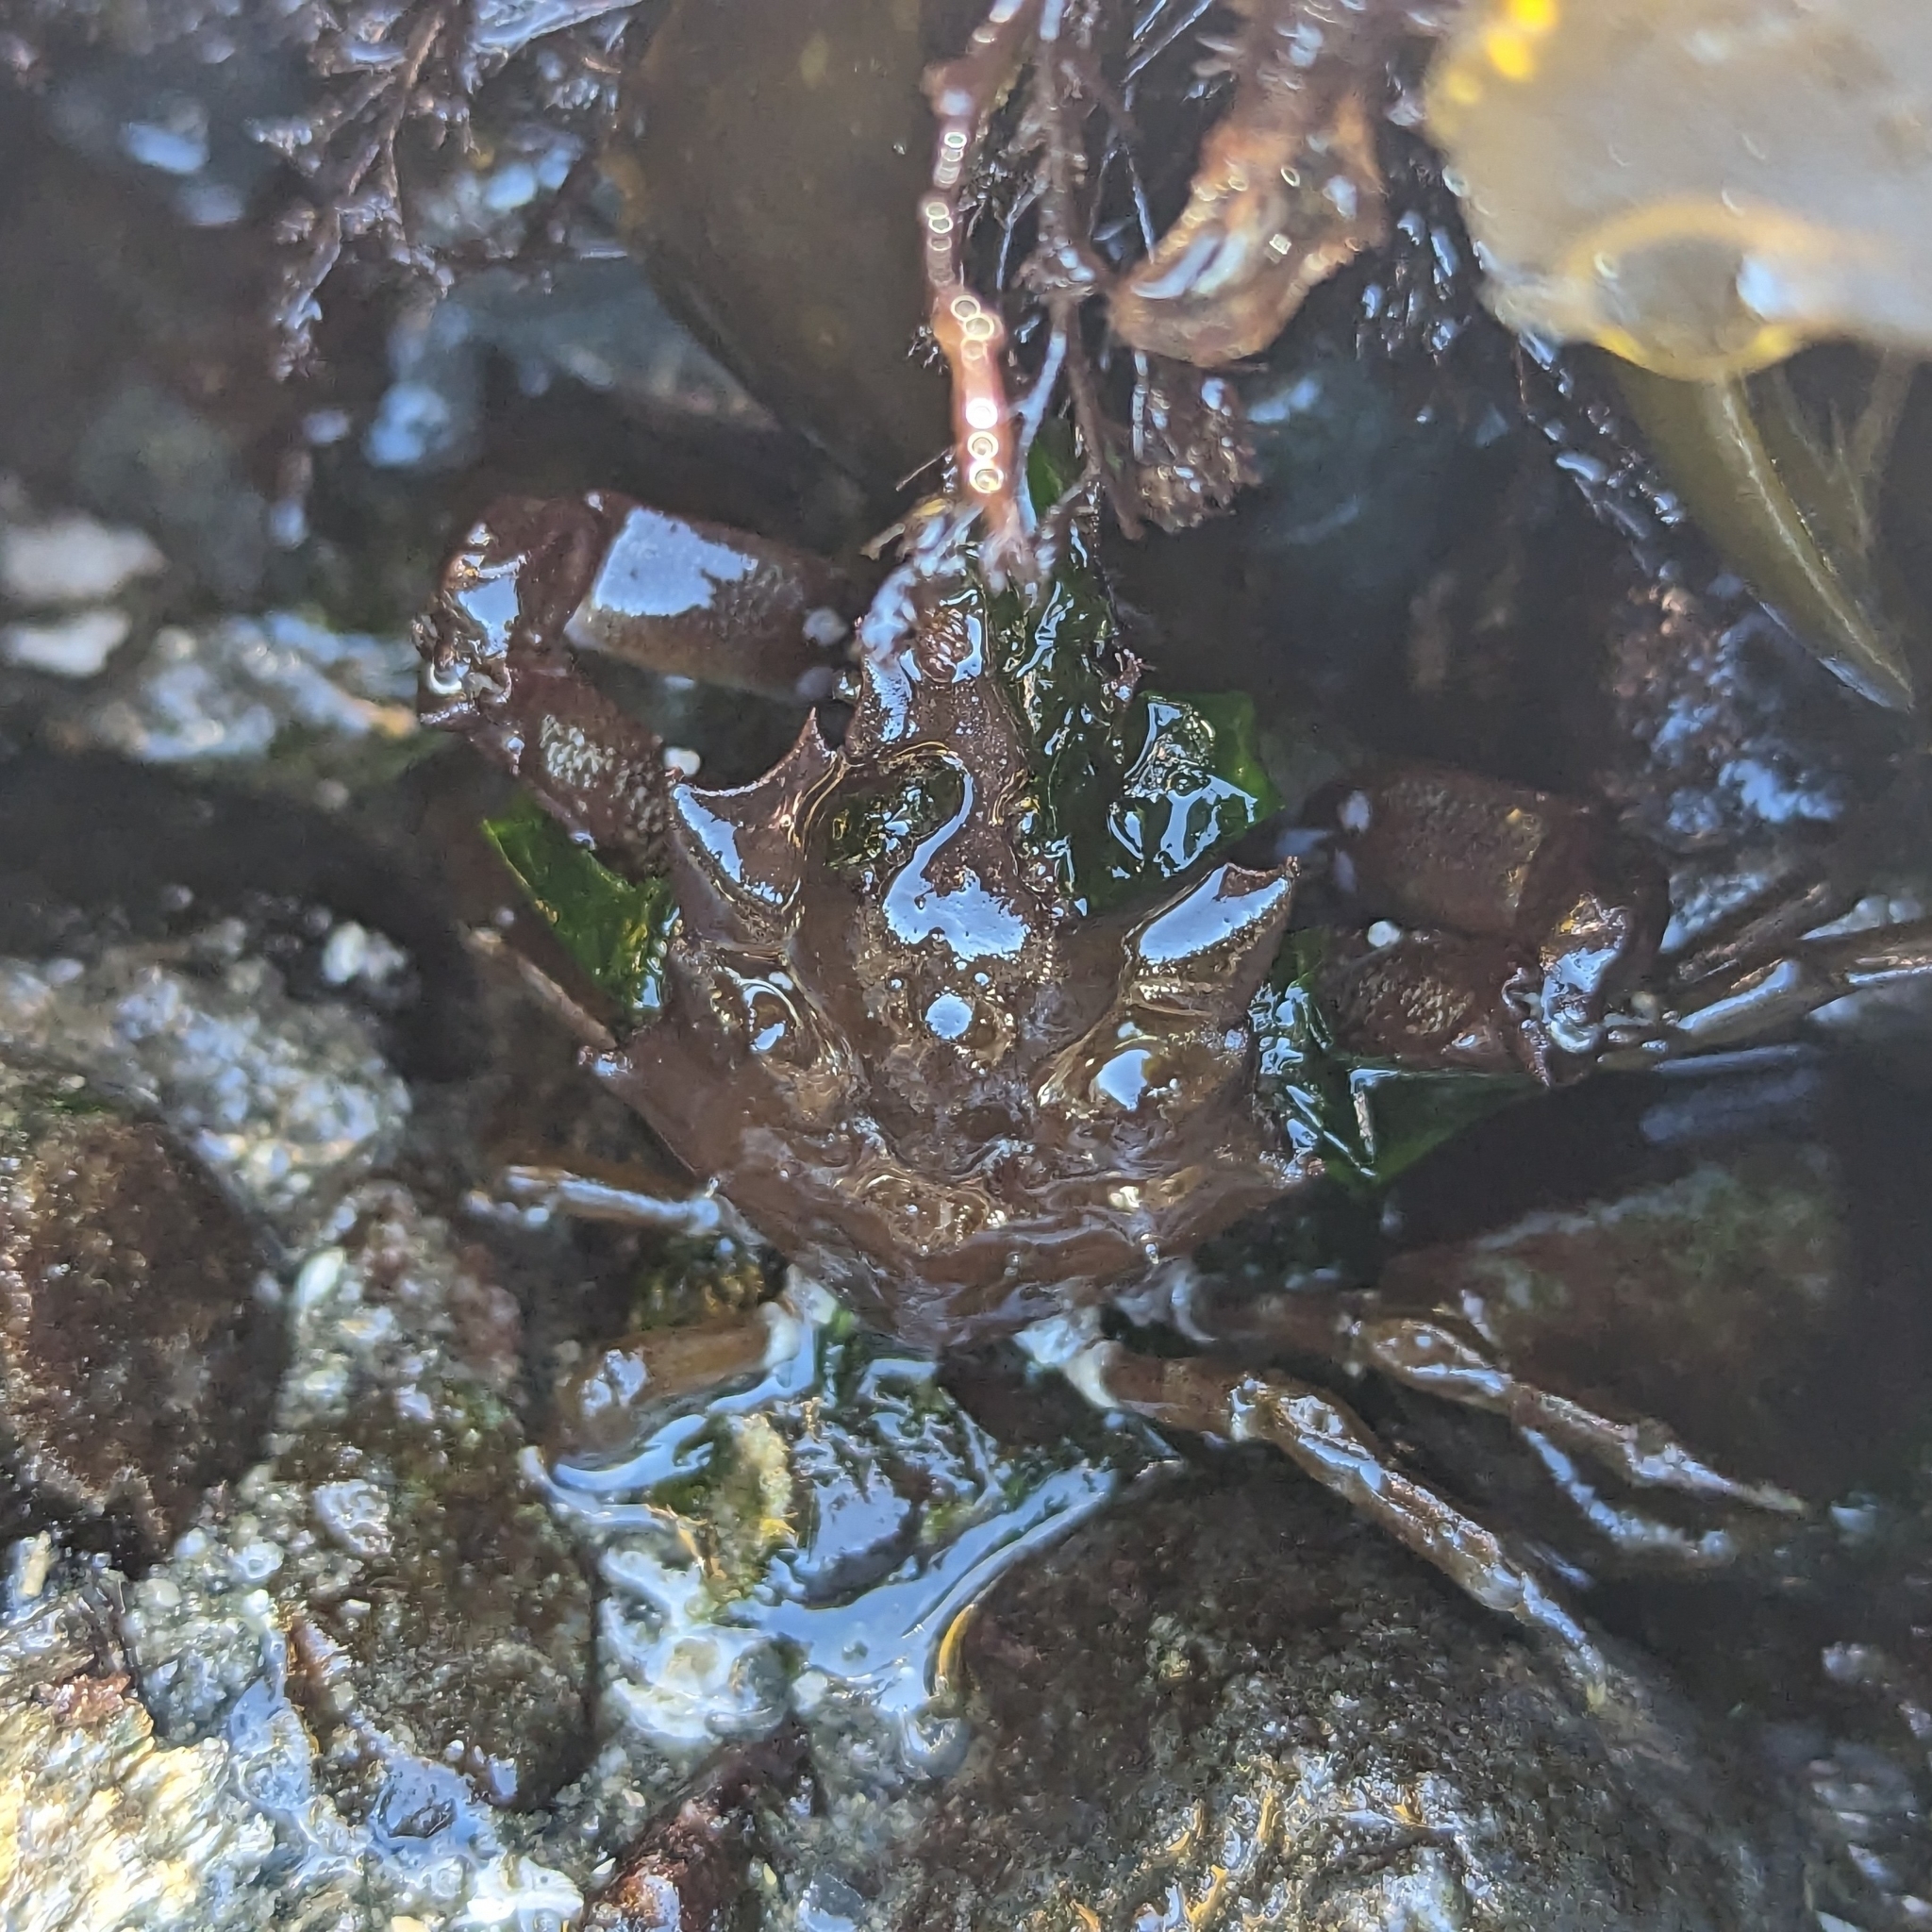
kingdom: Animalia
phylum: Arthropoda
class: Malacostraca
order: Decapoda
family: Epialtidae
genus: Pugettia
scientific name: Pugettia gracilis
